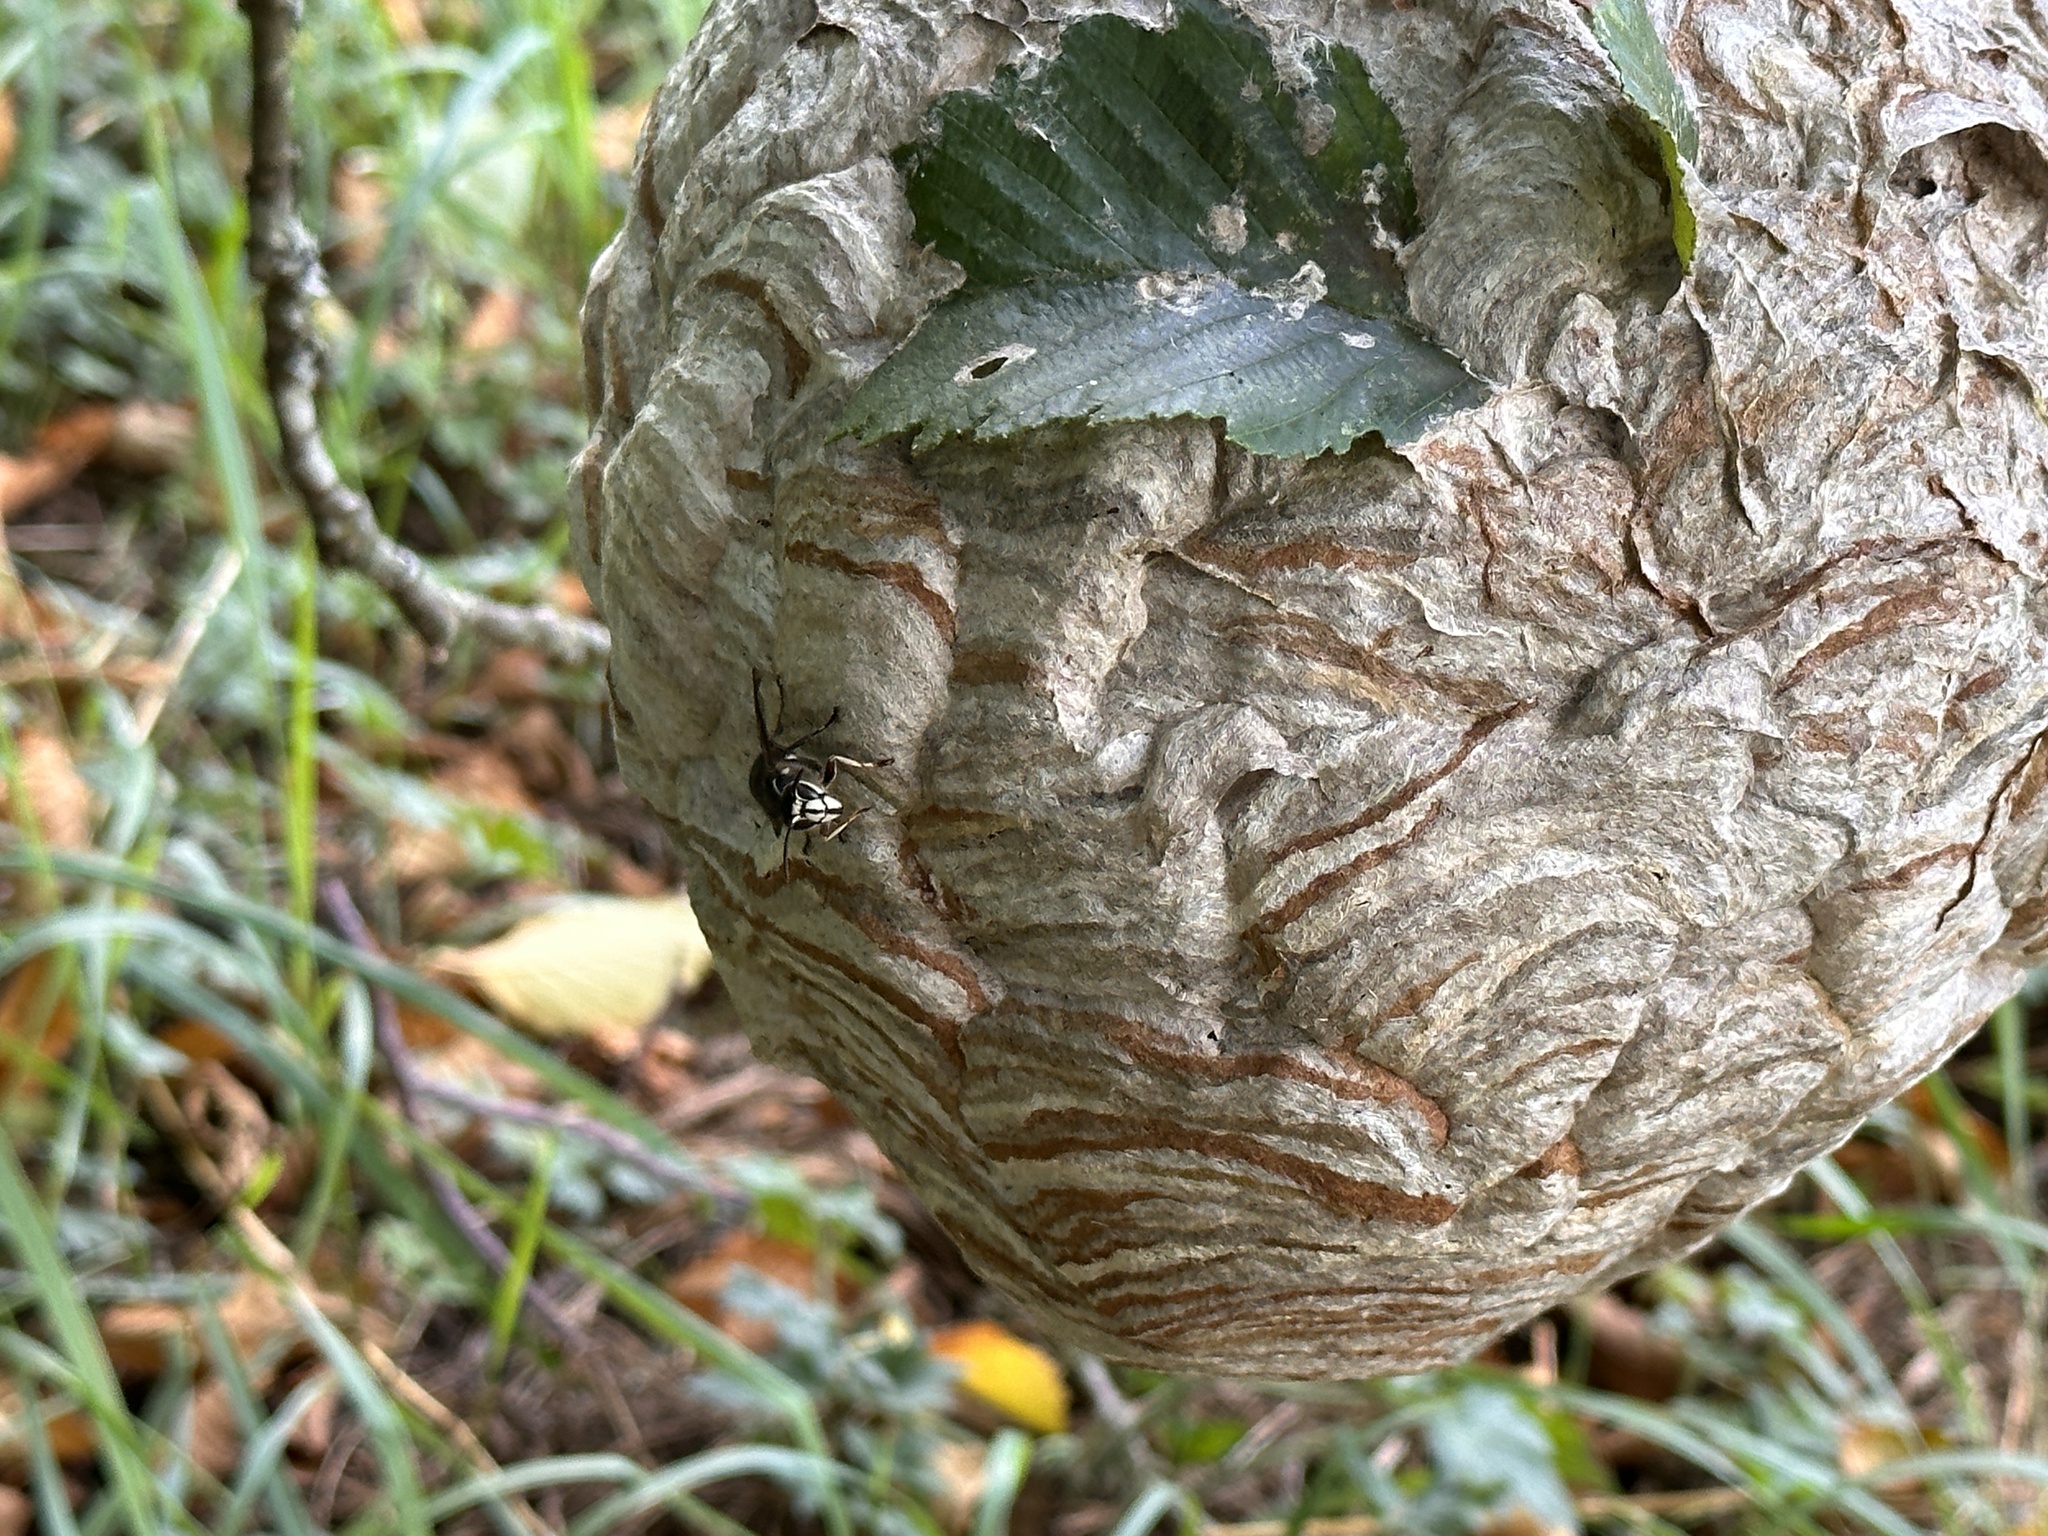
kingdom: Animalia
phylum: Arthropoda
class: Insecta
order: Hymenoptera
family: Vespidae
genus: Dolichovespula
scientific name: Dolichovespula maculata
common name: Bald-faced hornet
